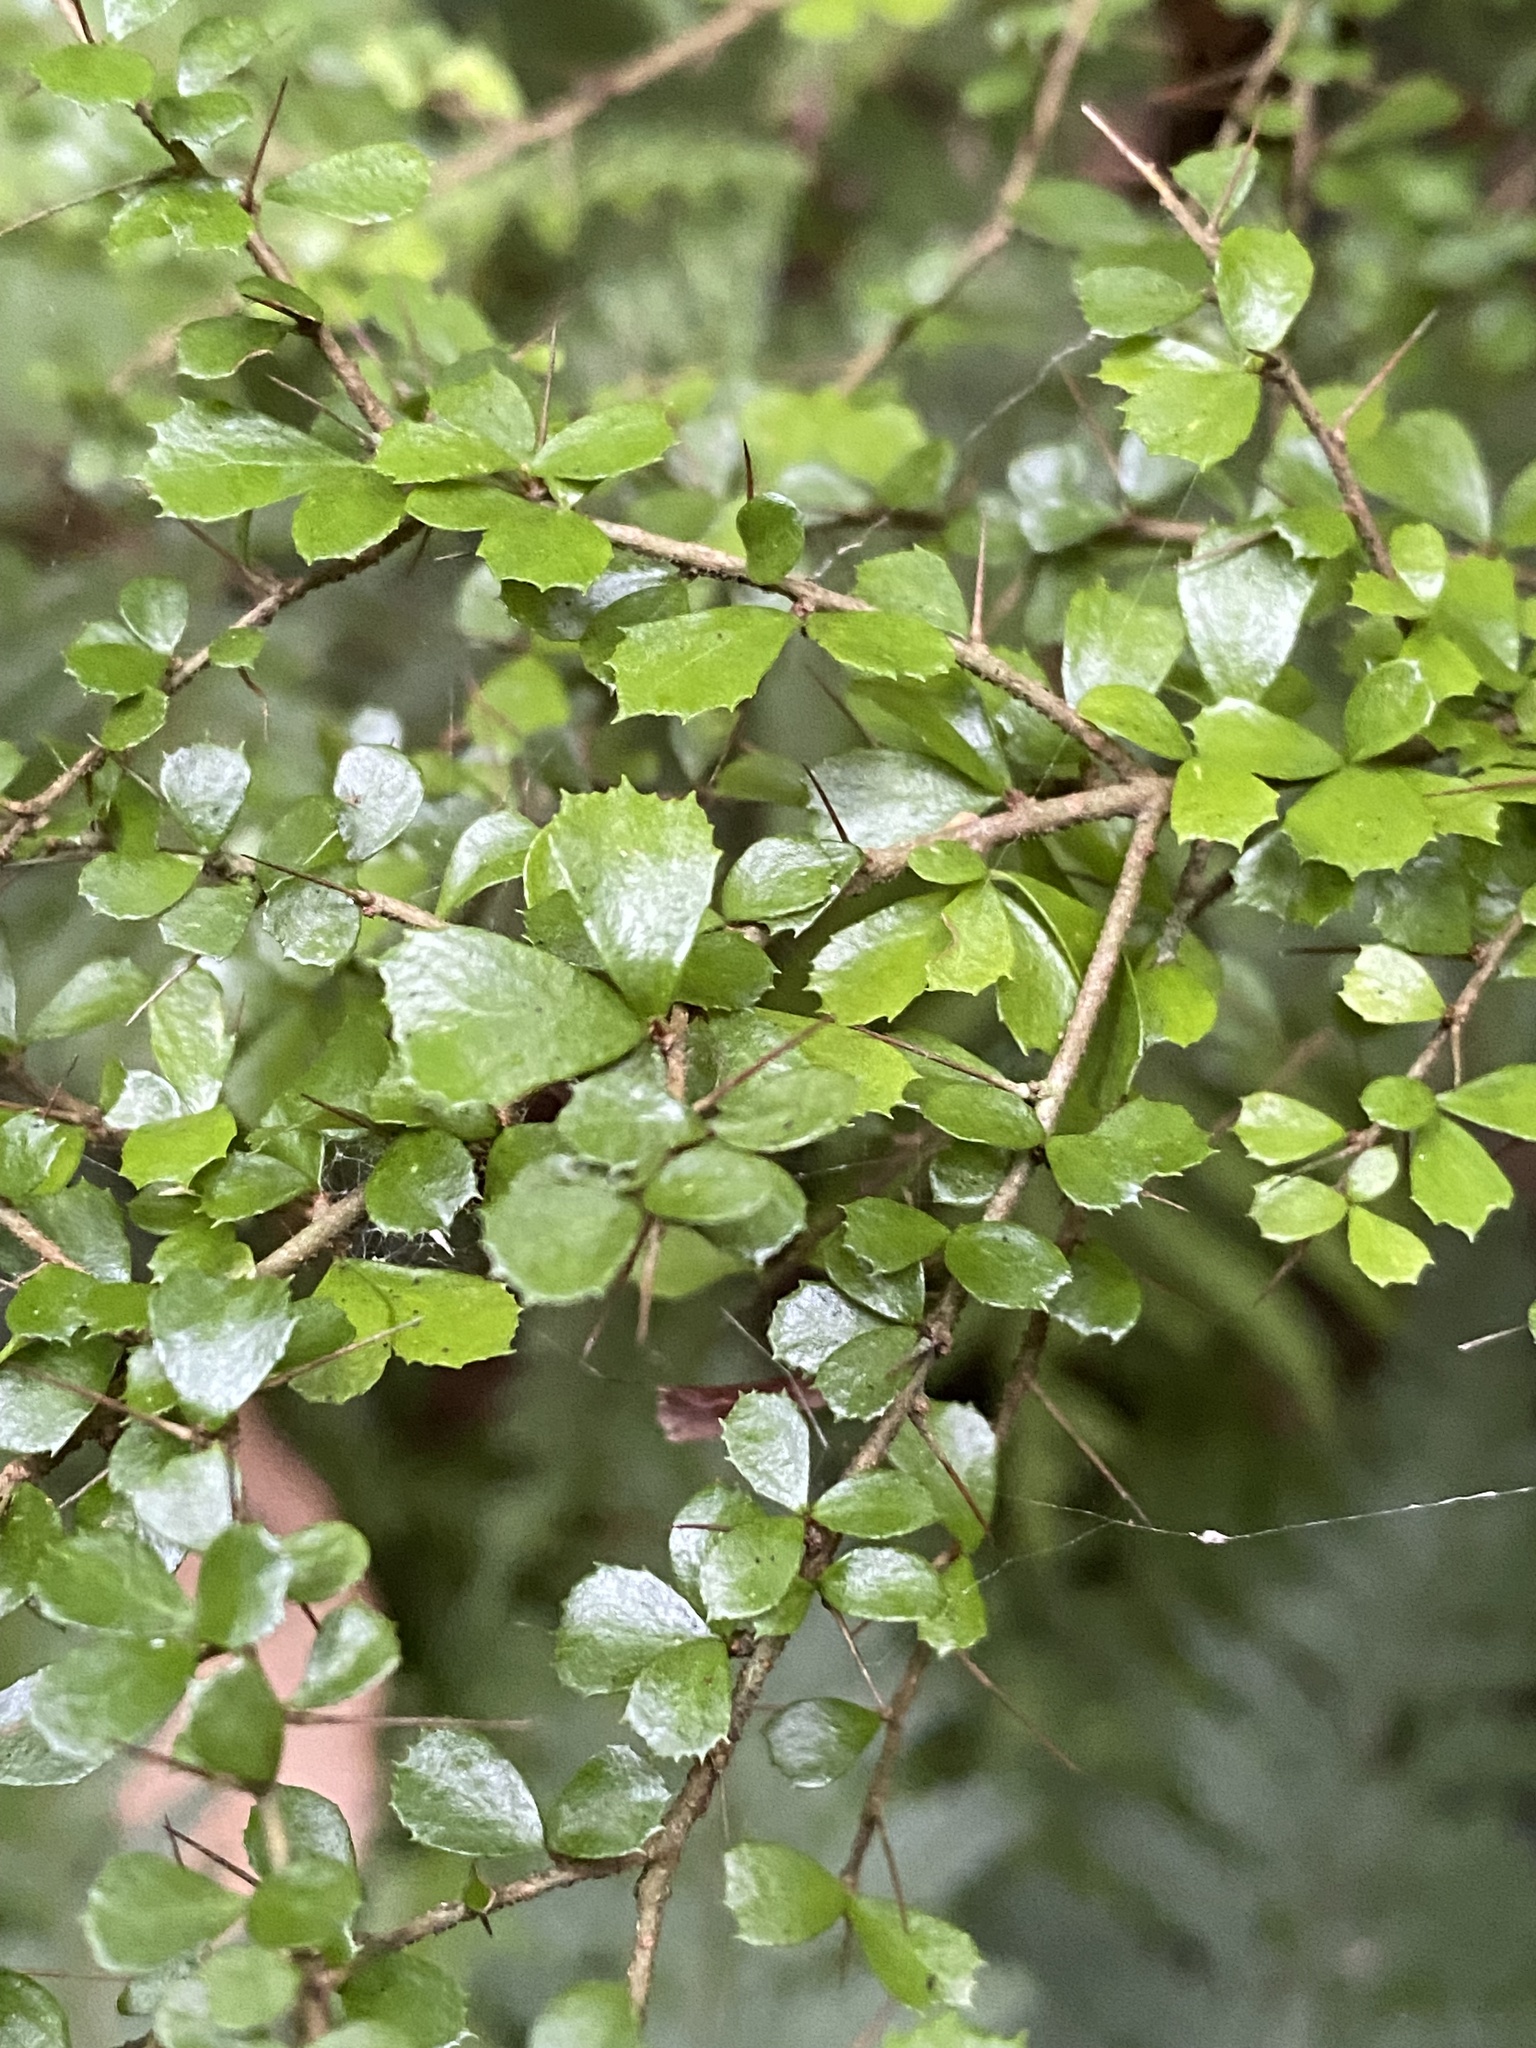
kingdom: Plantae
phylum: Tracheophyta
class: Magnoliopsida
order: Apiales
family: Pittosporaceae
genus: Pittosporum
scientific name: Pittosporum multiflorum
